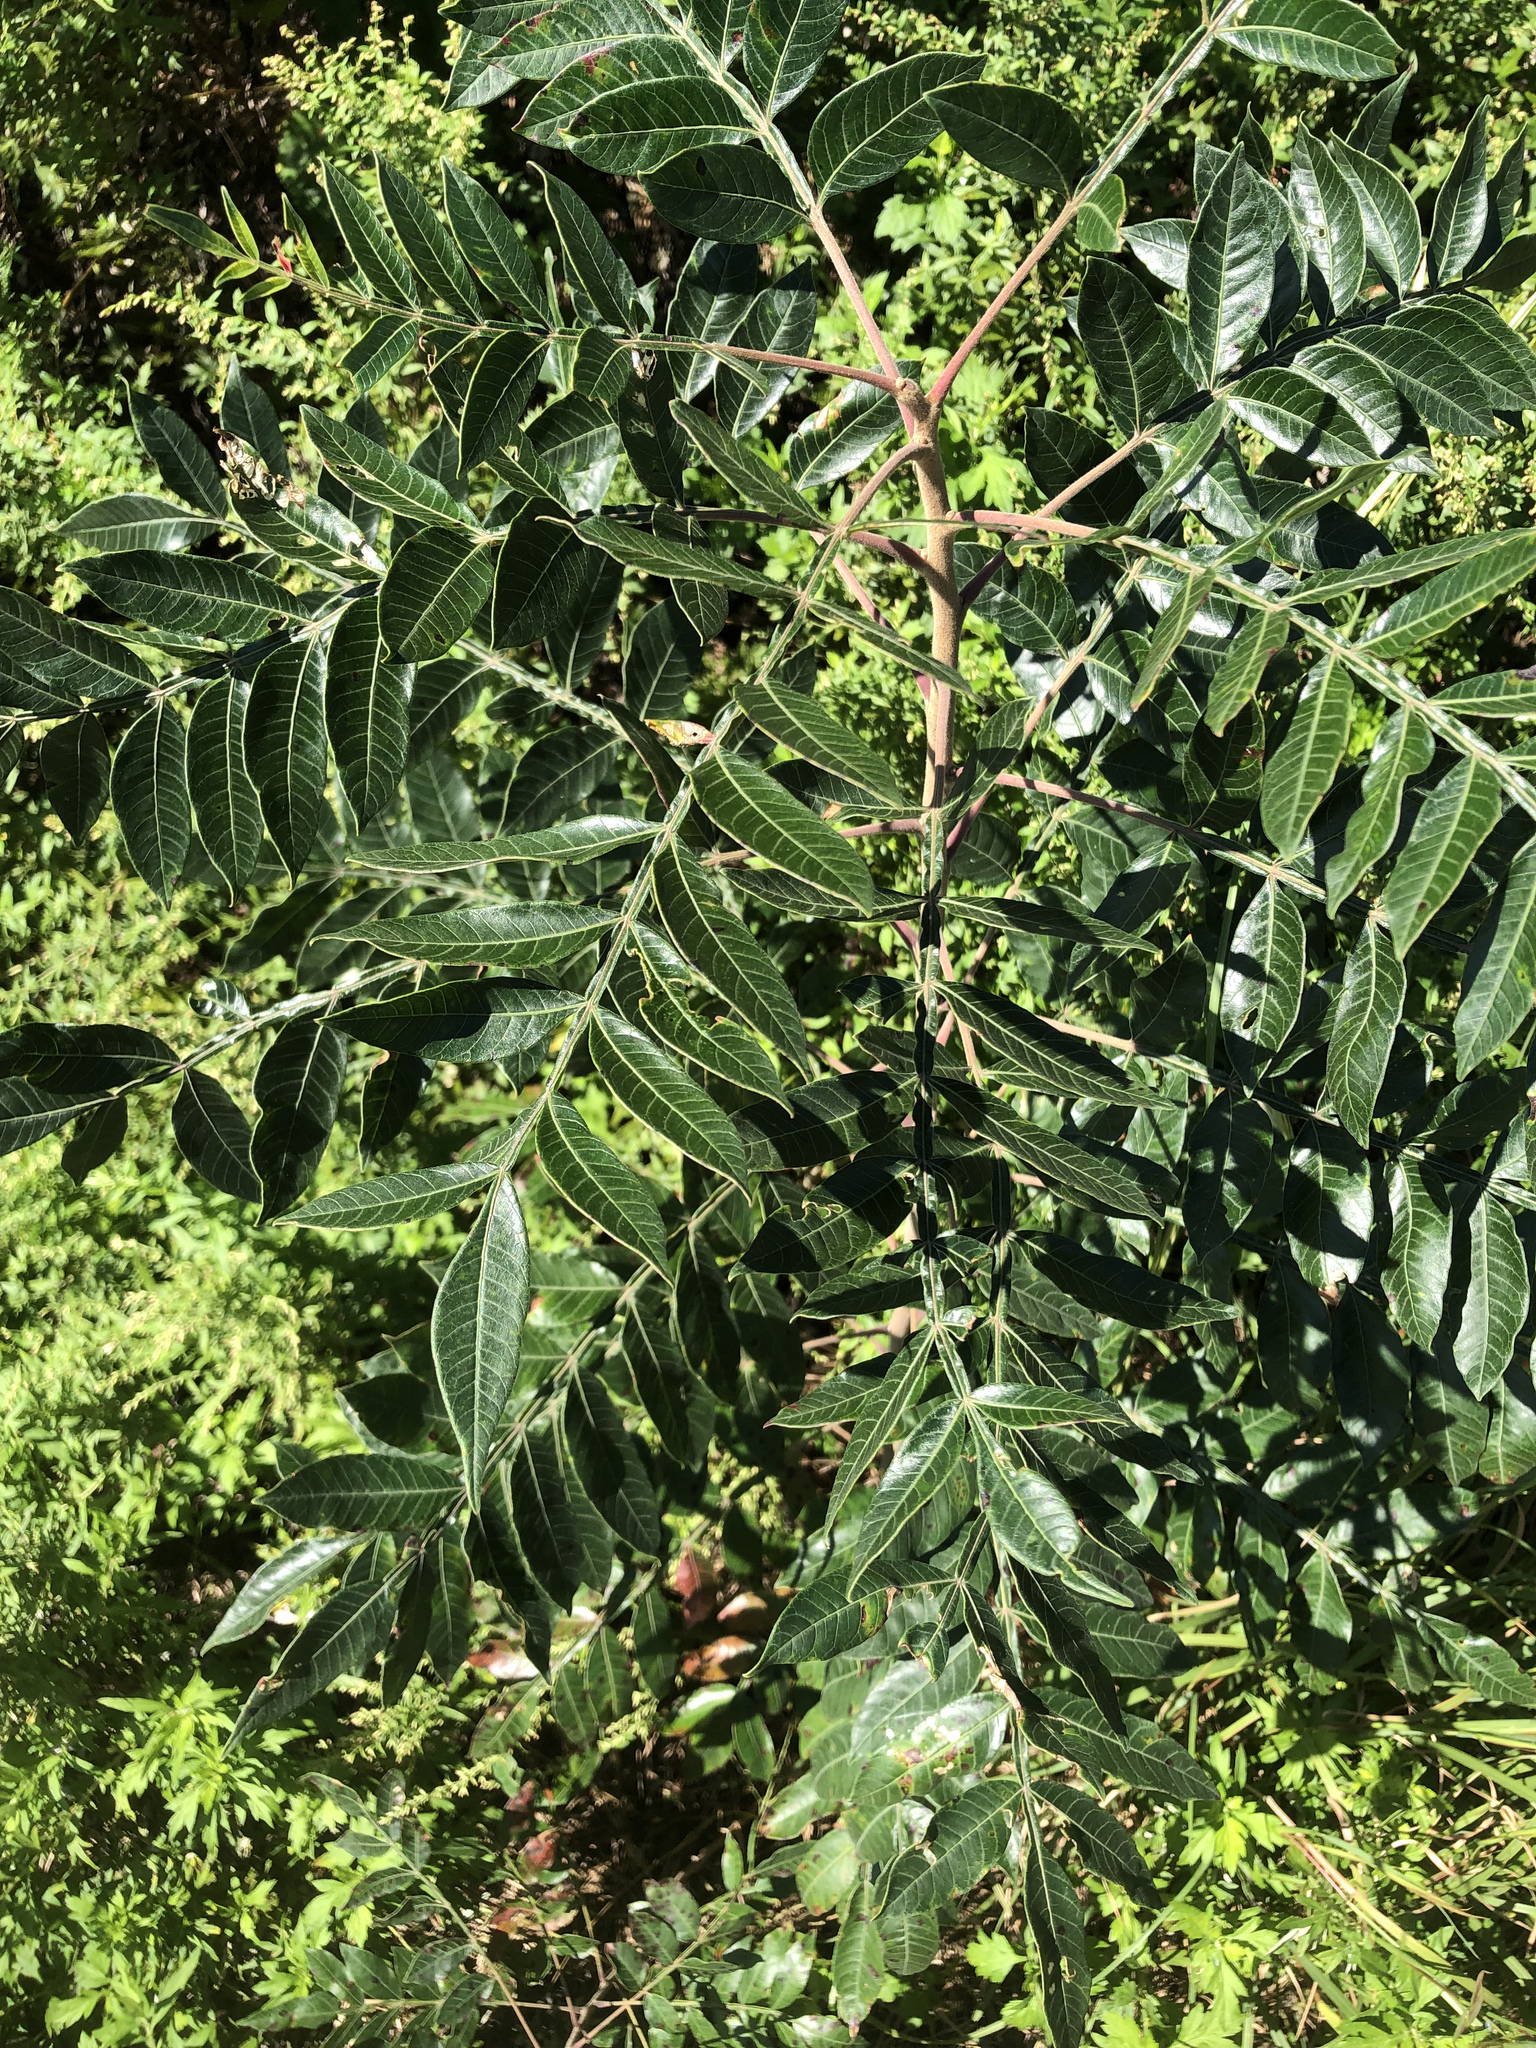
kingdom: Plantae
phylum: Tracheophyta
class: Magnoliopsida
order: Sapindales
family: Anacardiaceae
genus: Rhus
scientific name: Rhus copallina
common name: Shining sumac
